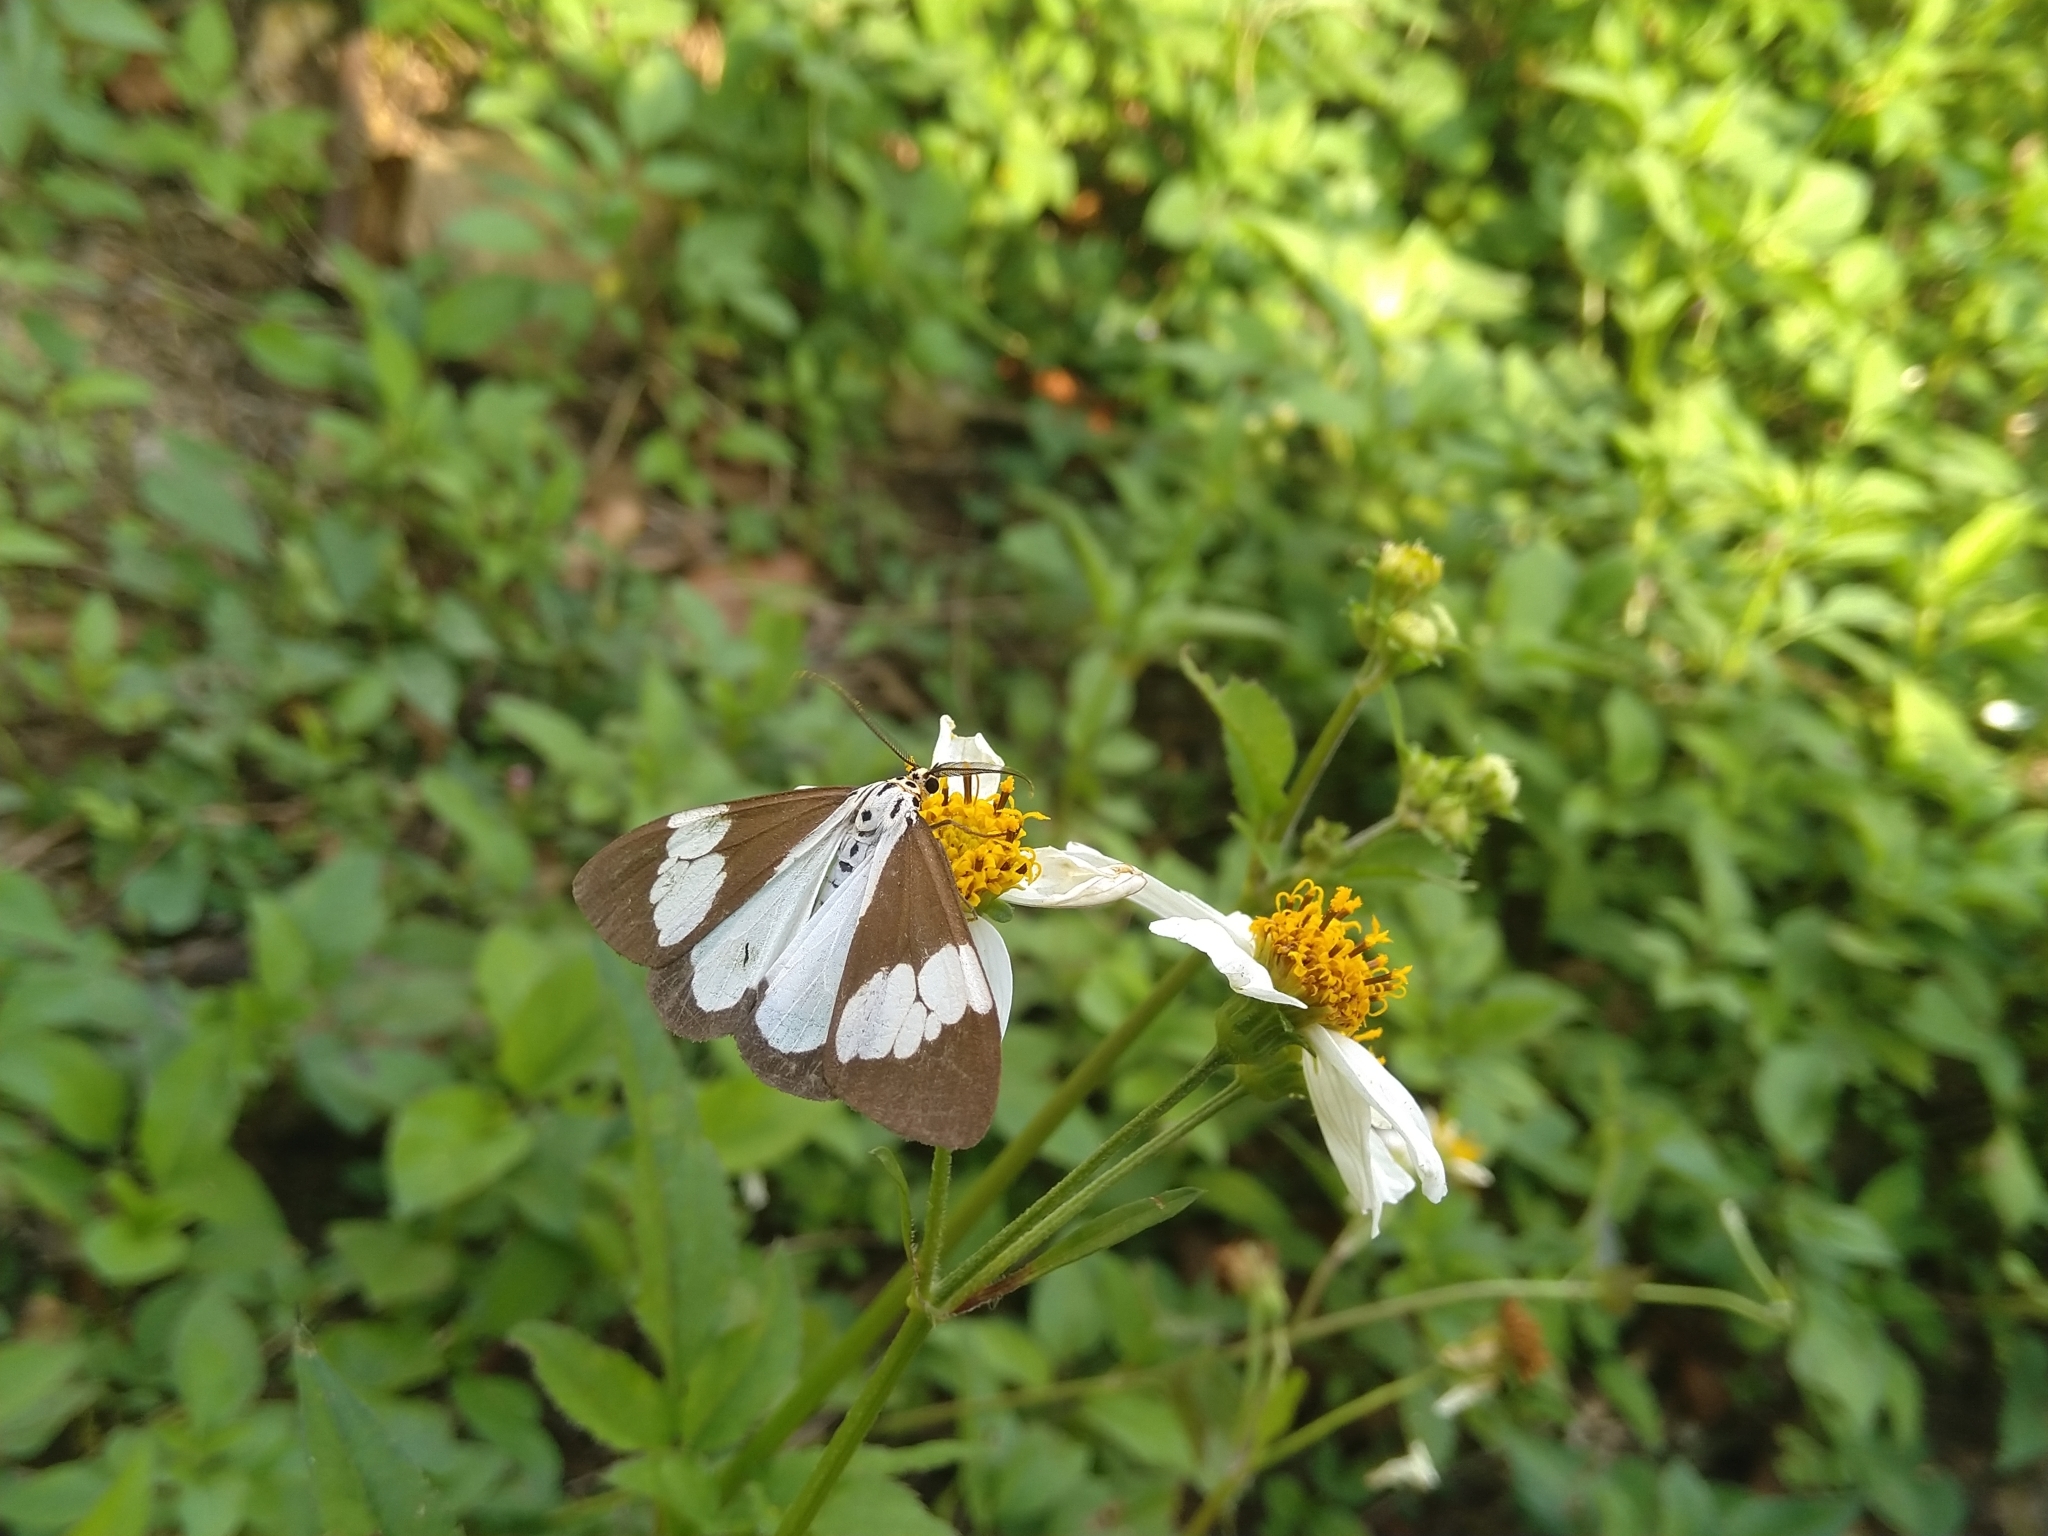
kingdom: Animalia
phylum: Arthropoda
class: Insecta
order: Lepidoptera
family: Erebidae
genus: Nyctemera
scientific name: Nyctemera lacticinia
